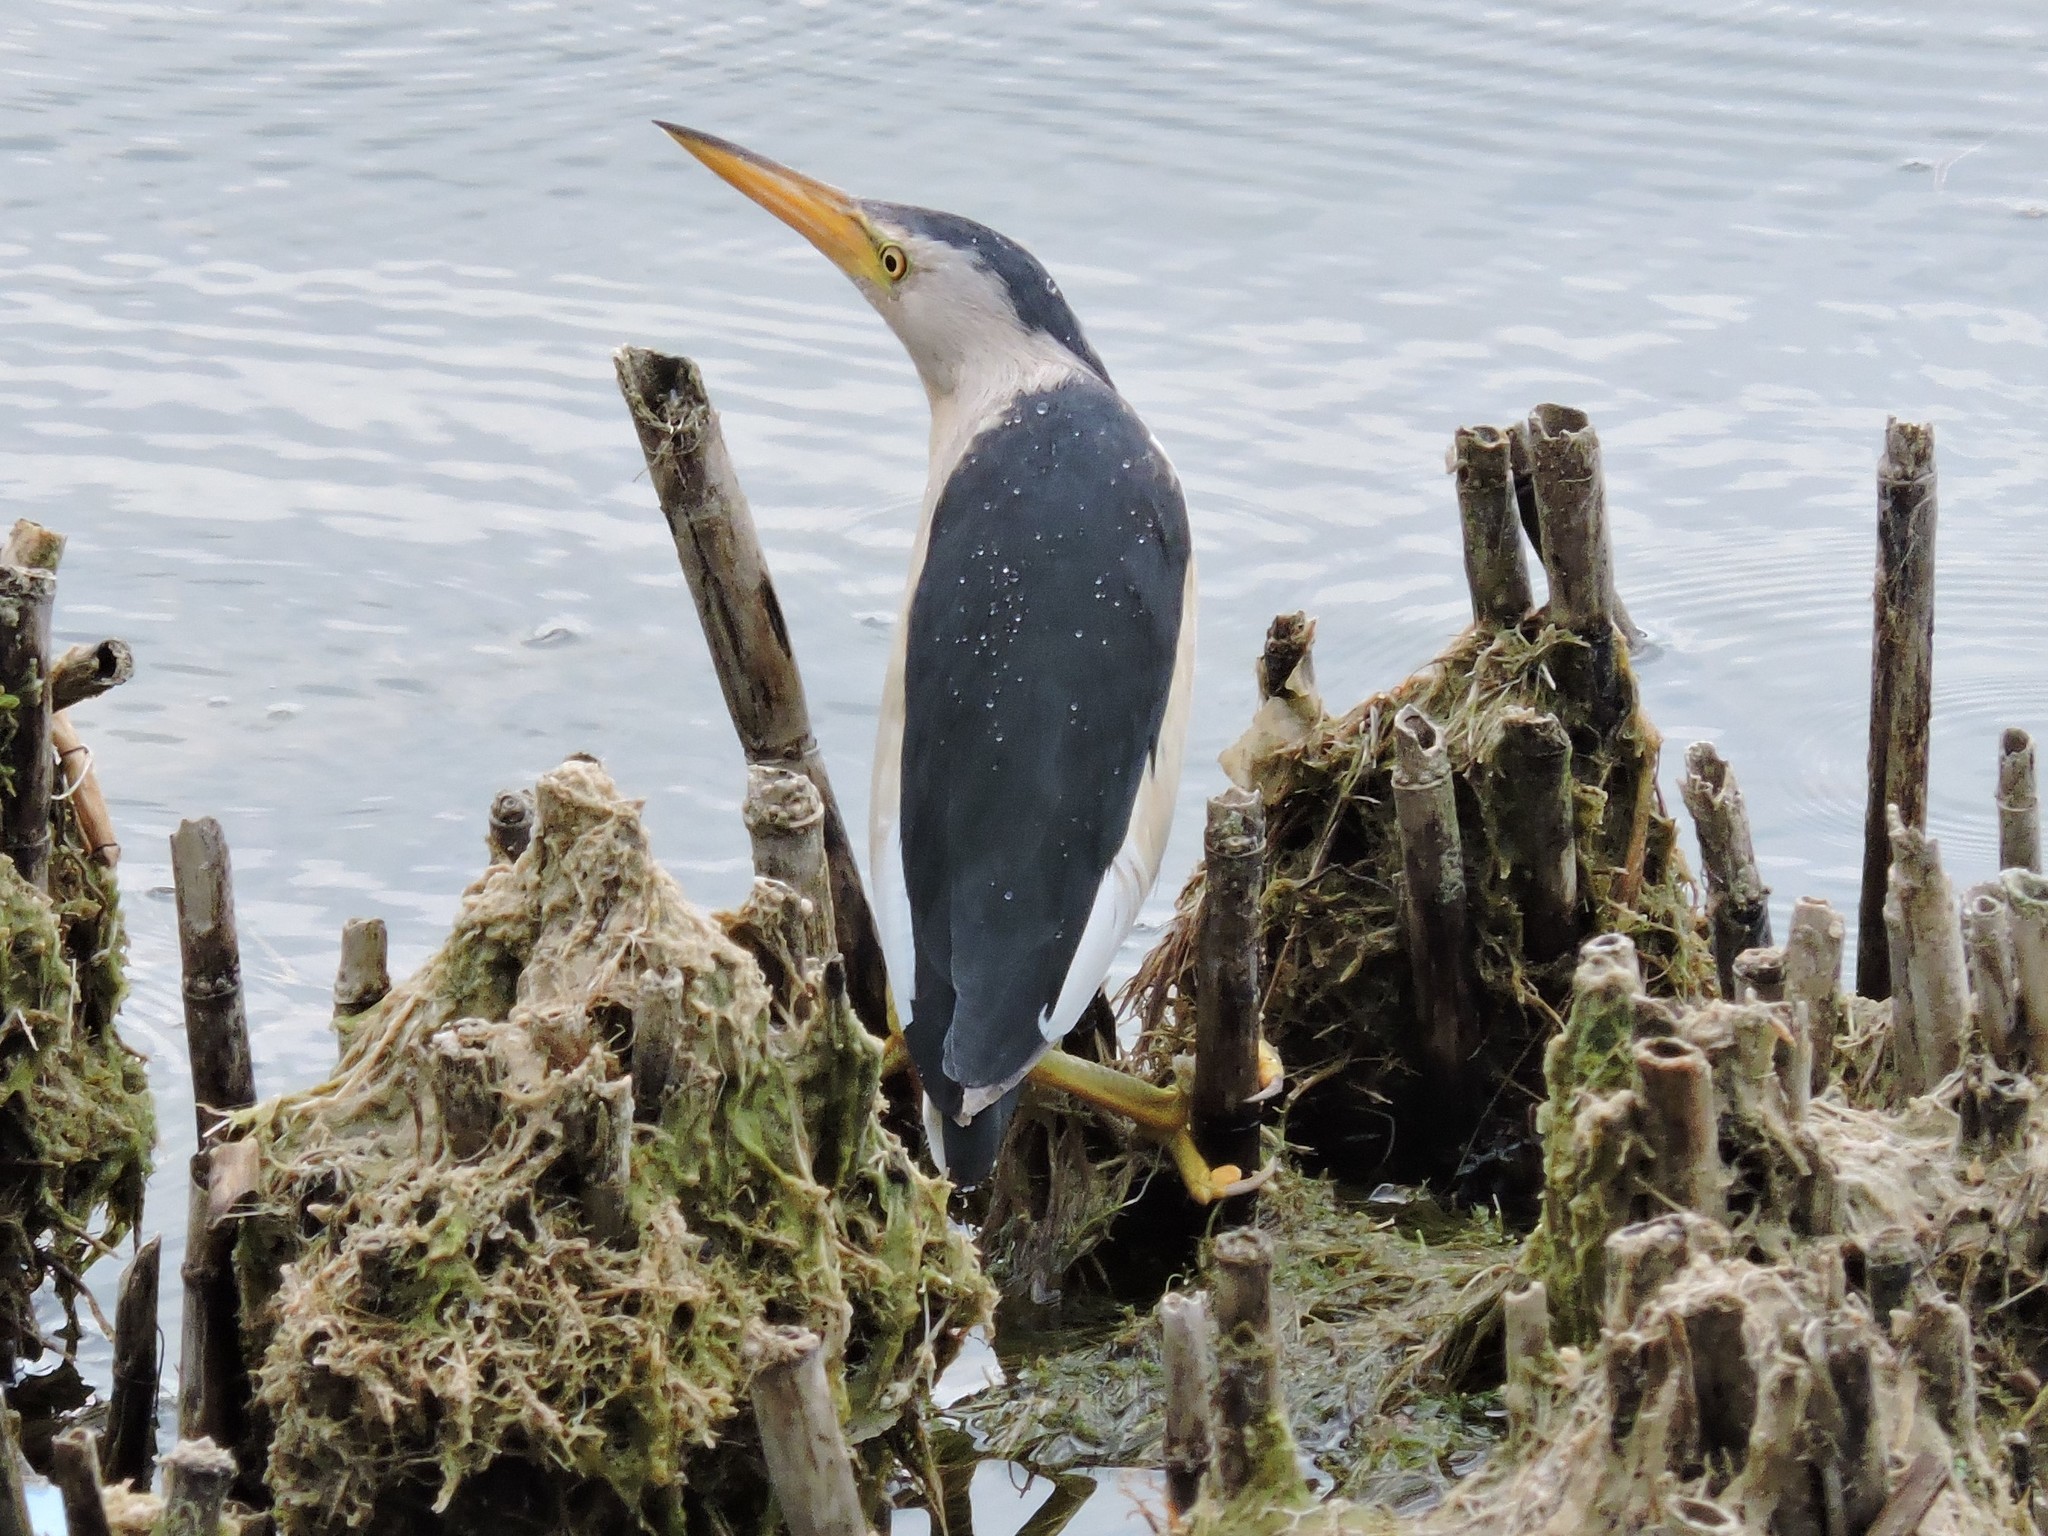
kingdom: Animalia
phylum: Chordata
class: Aves
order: Pelecaniformes
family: Ardeidae
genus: Ixobrychus
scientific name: Ixobrychus minutus
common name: Little bittern
